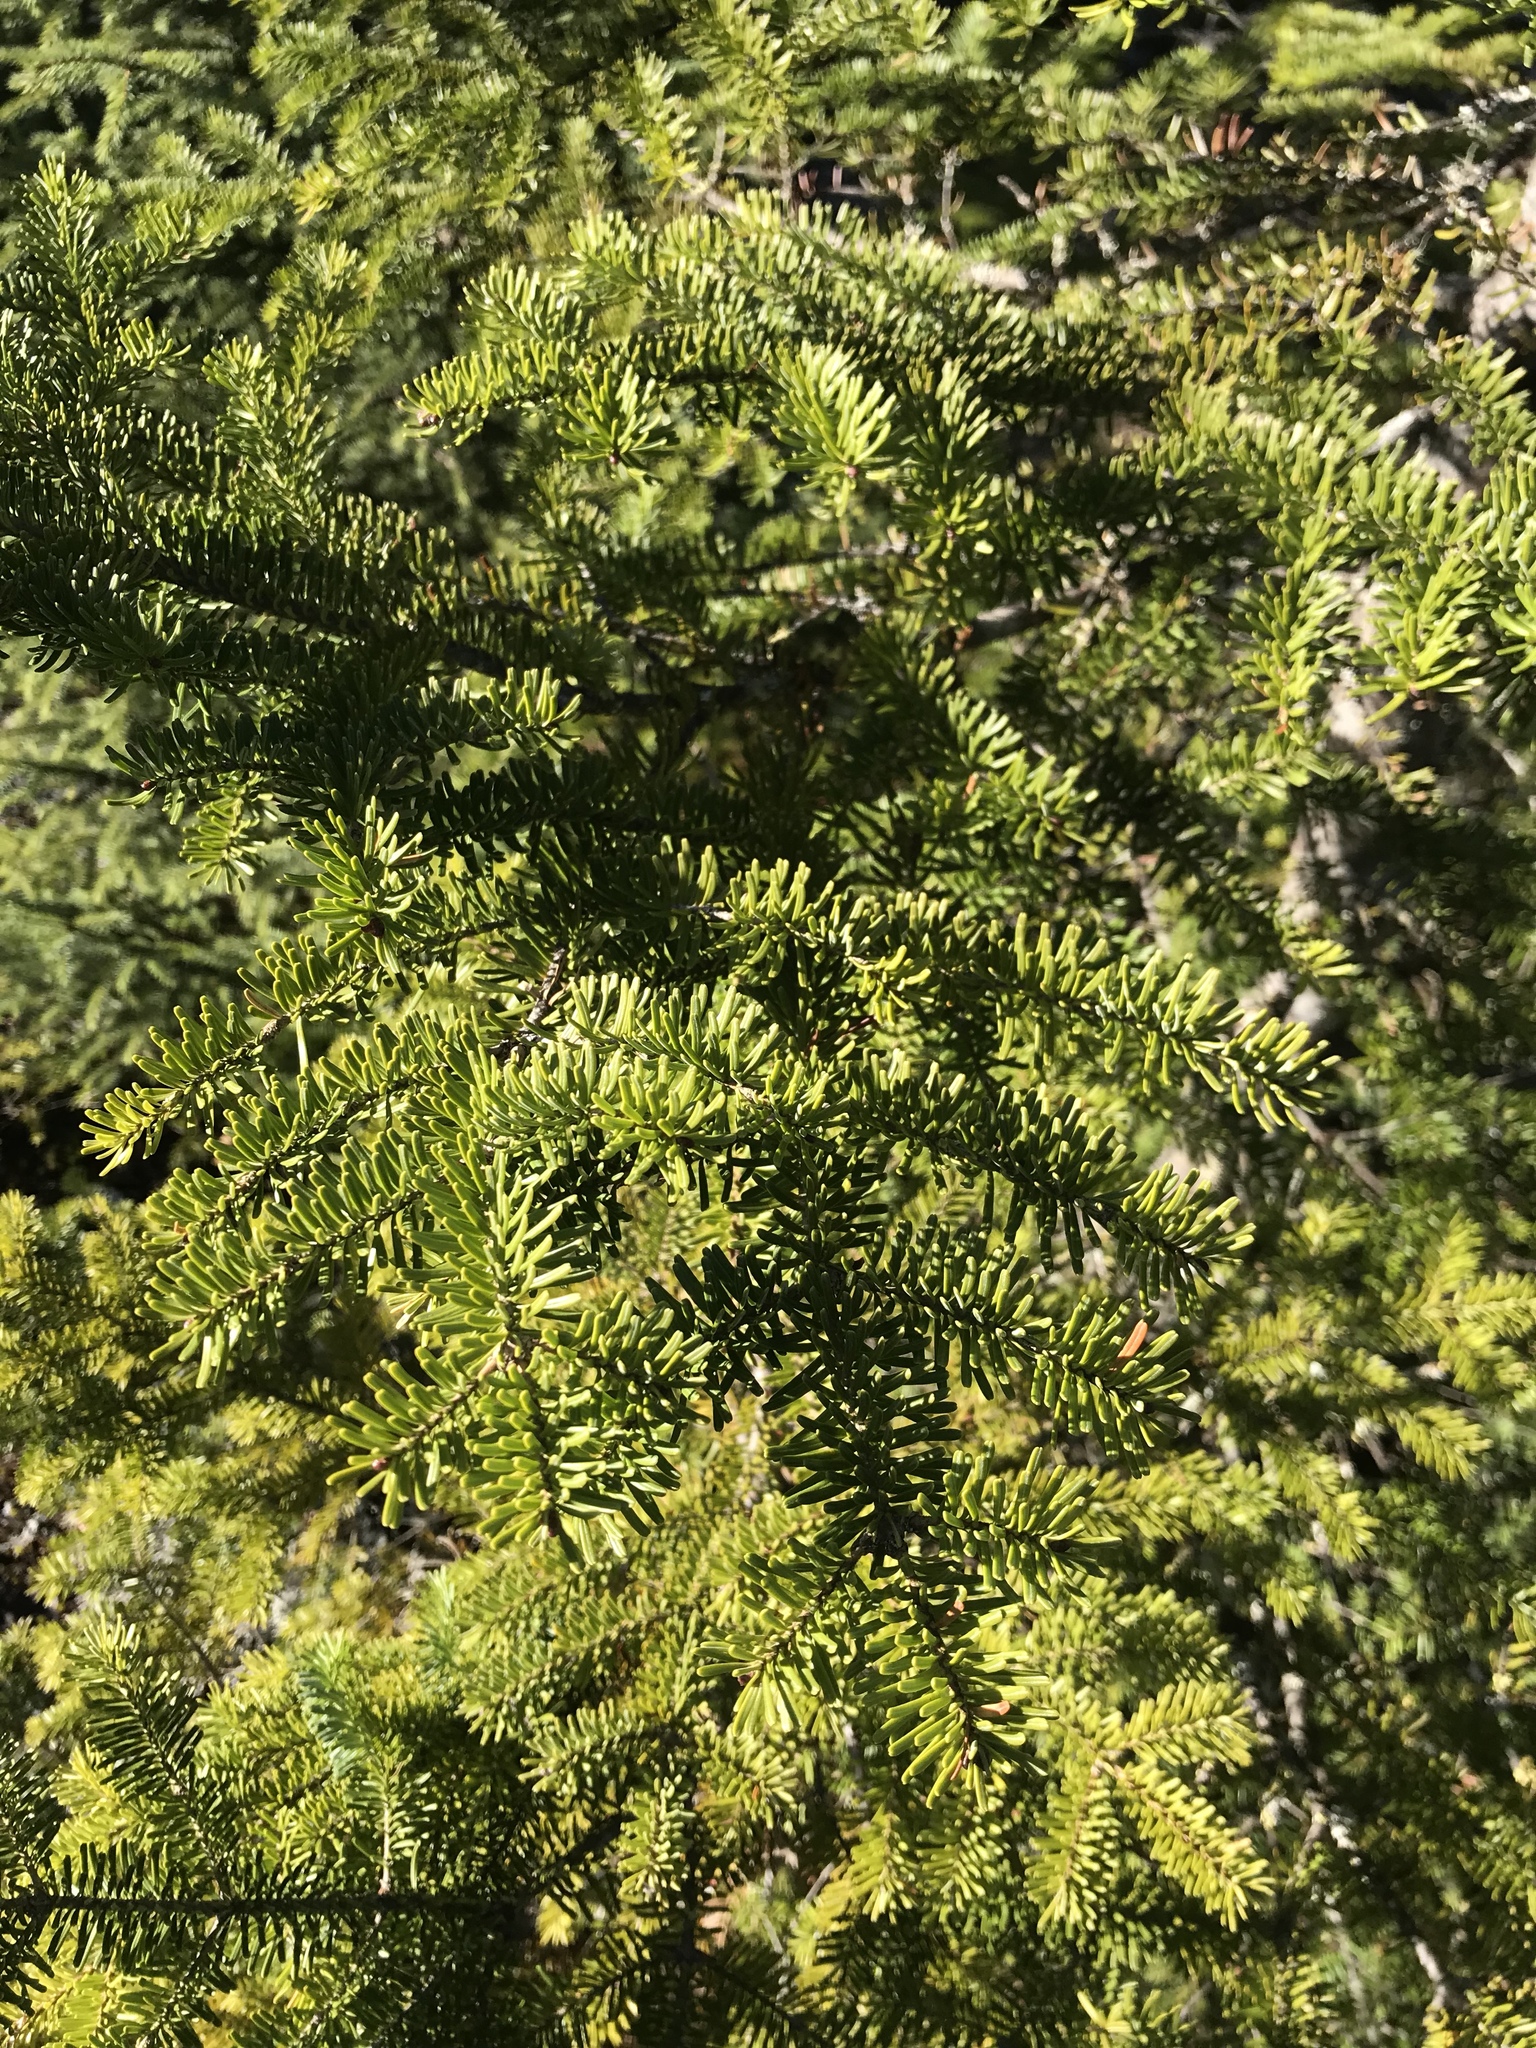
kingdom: Plantae
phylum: Tracheophyta
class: Pinopsida
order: Pinales
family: Pinaceae
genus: Abies
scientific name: Abies balsamea
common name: Balsam fir
